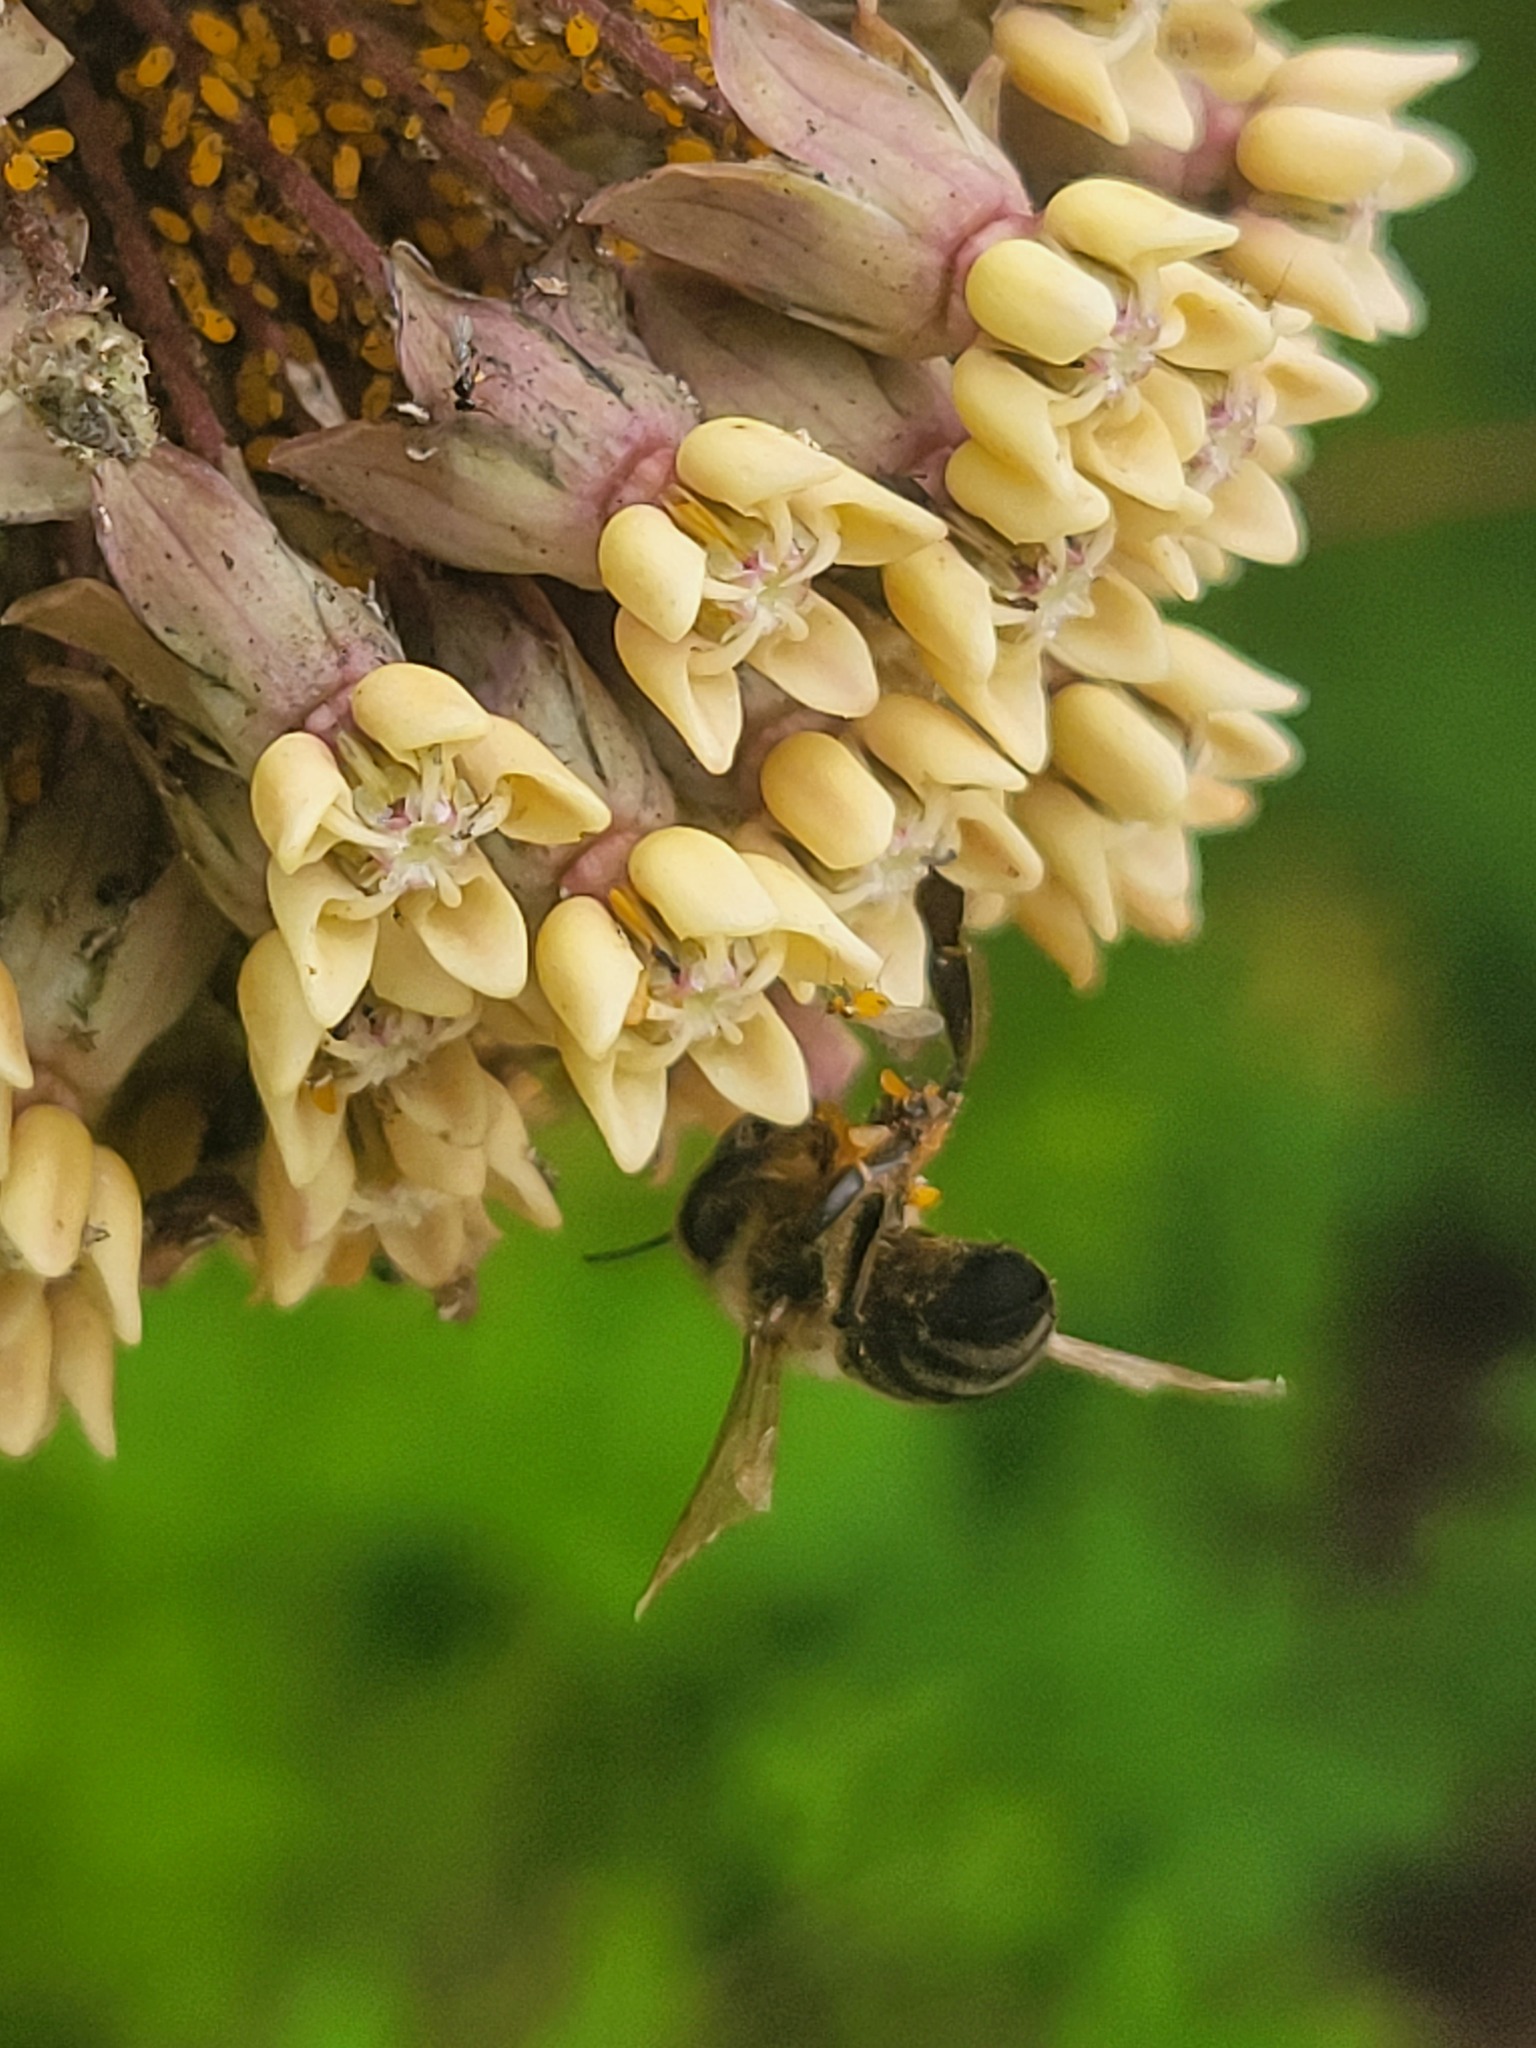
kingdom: Animalia
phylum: Arthropoda
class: Insecta
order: Hymenoptera
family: Apidae
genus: Apis
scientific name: Apis mellifera
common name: Honey bee
